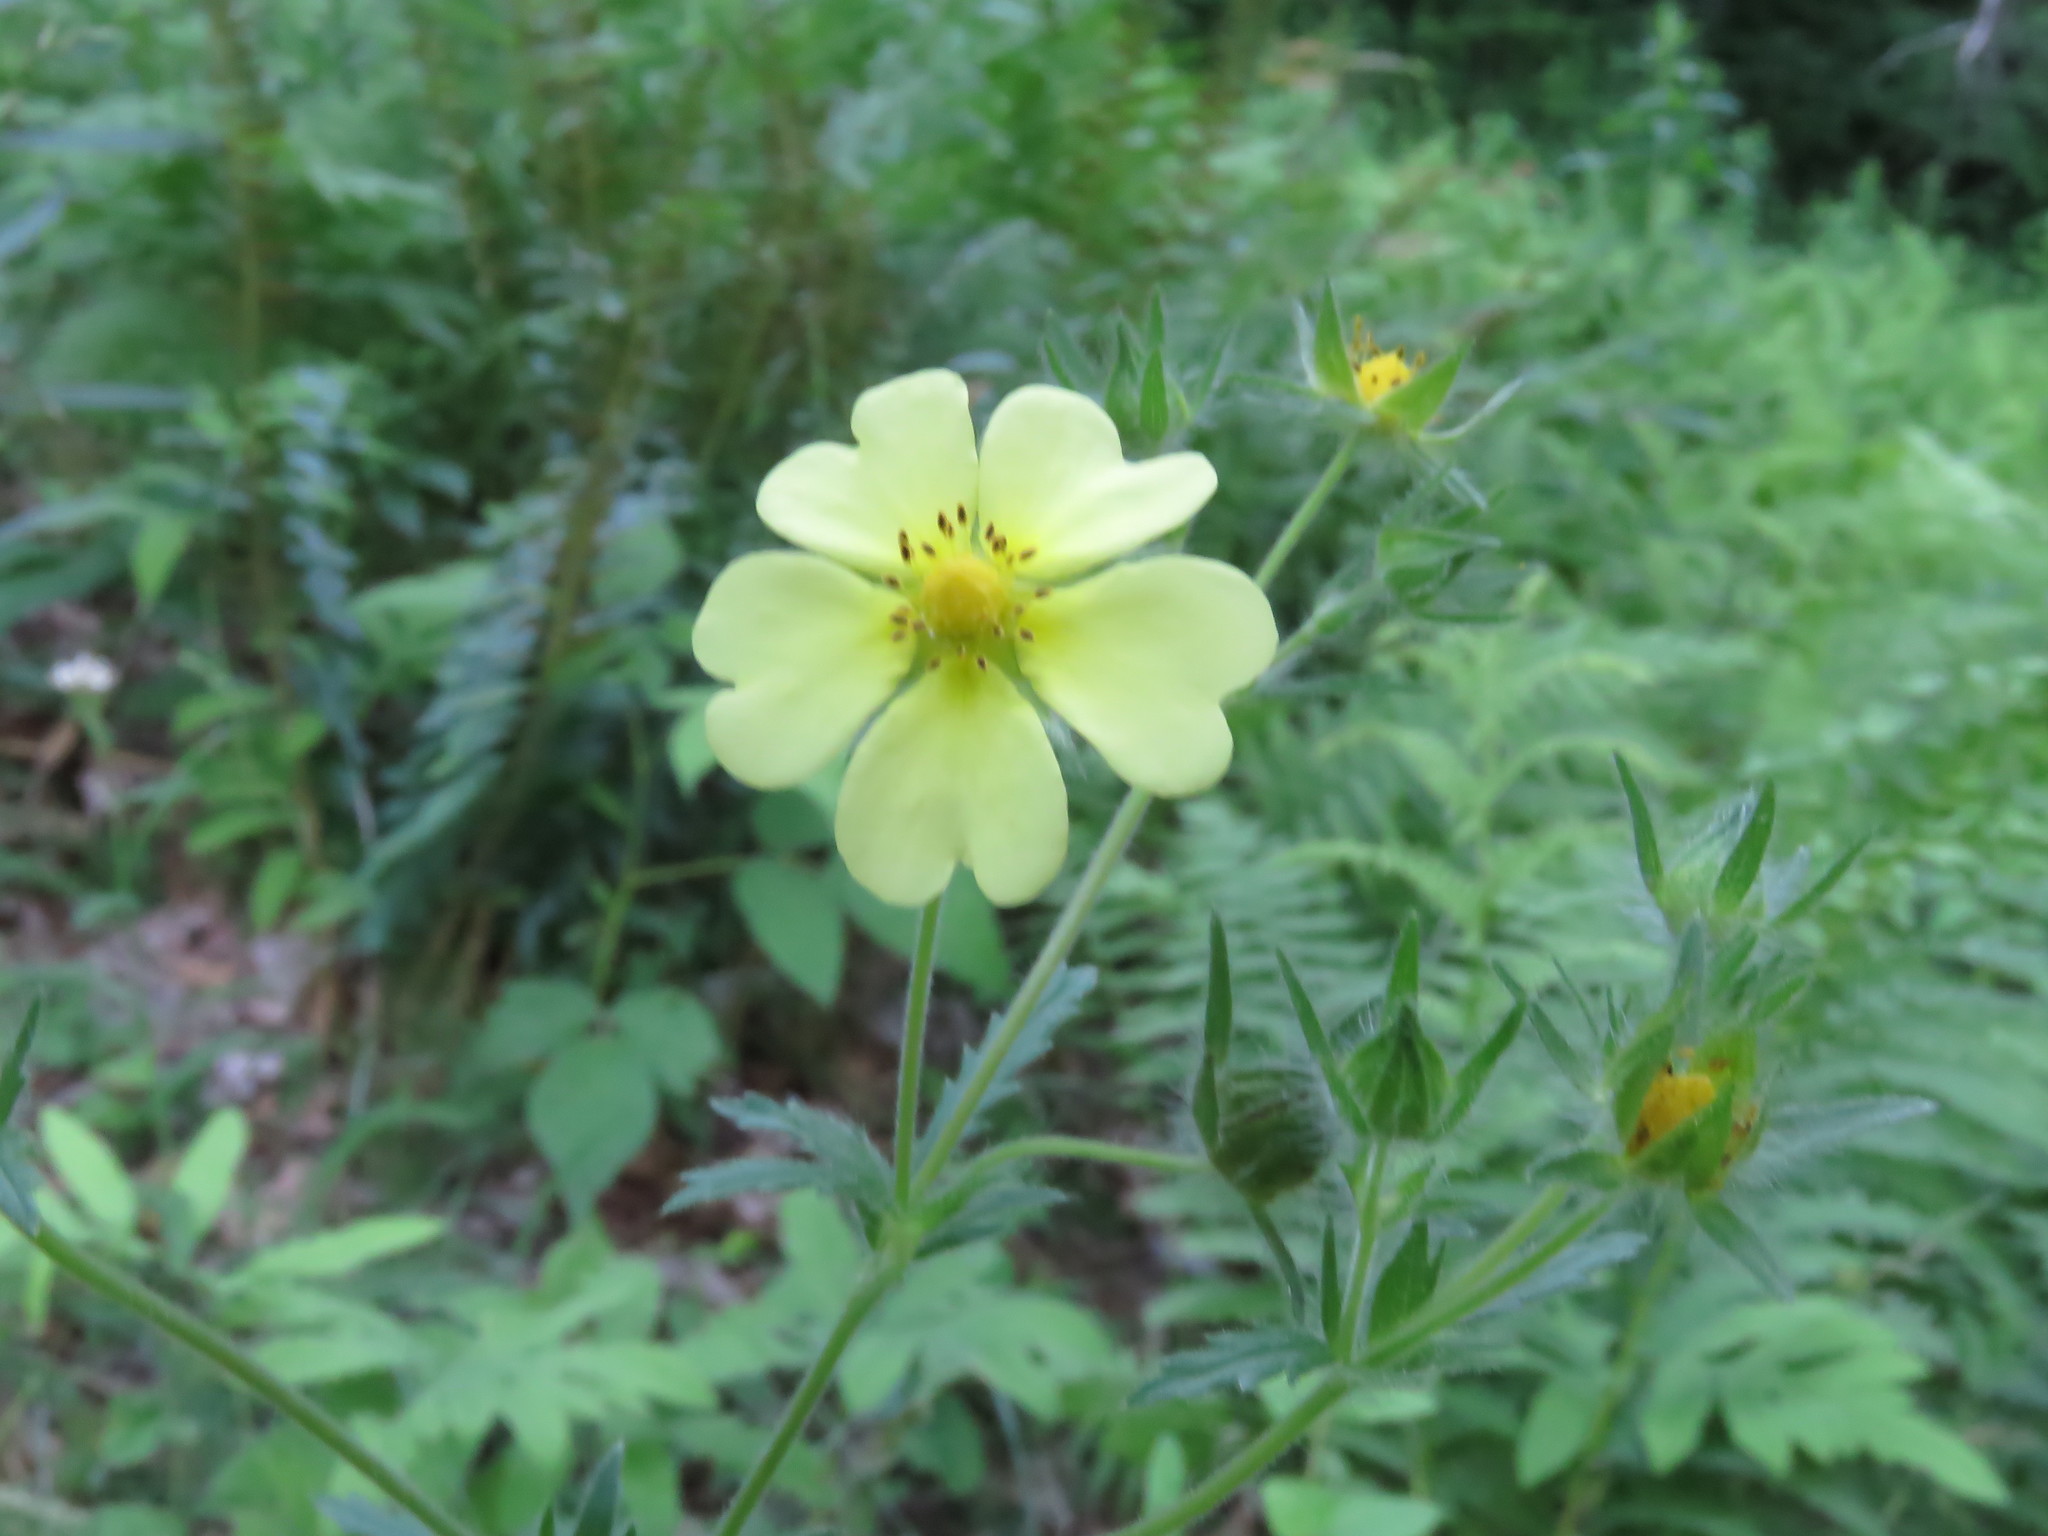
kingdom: Plantae
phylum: Tracheophyta
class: Magnoliopsida
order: Rosales
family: Rosaceae
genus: Potentilla
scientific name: Potentilla recta
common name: Sulphur cinquefoil
